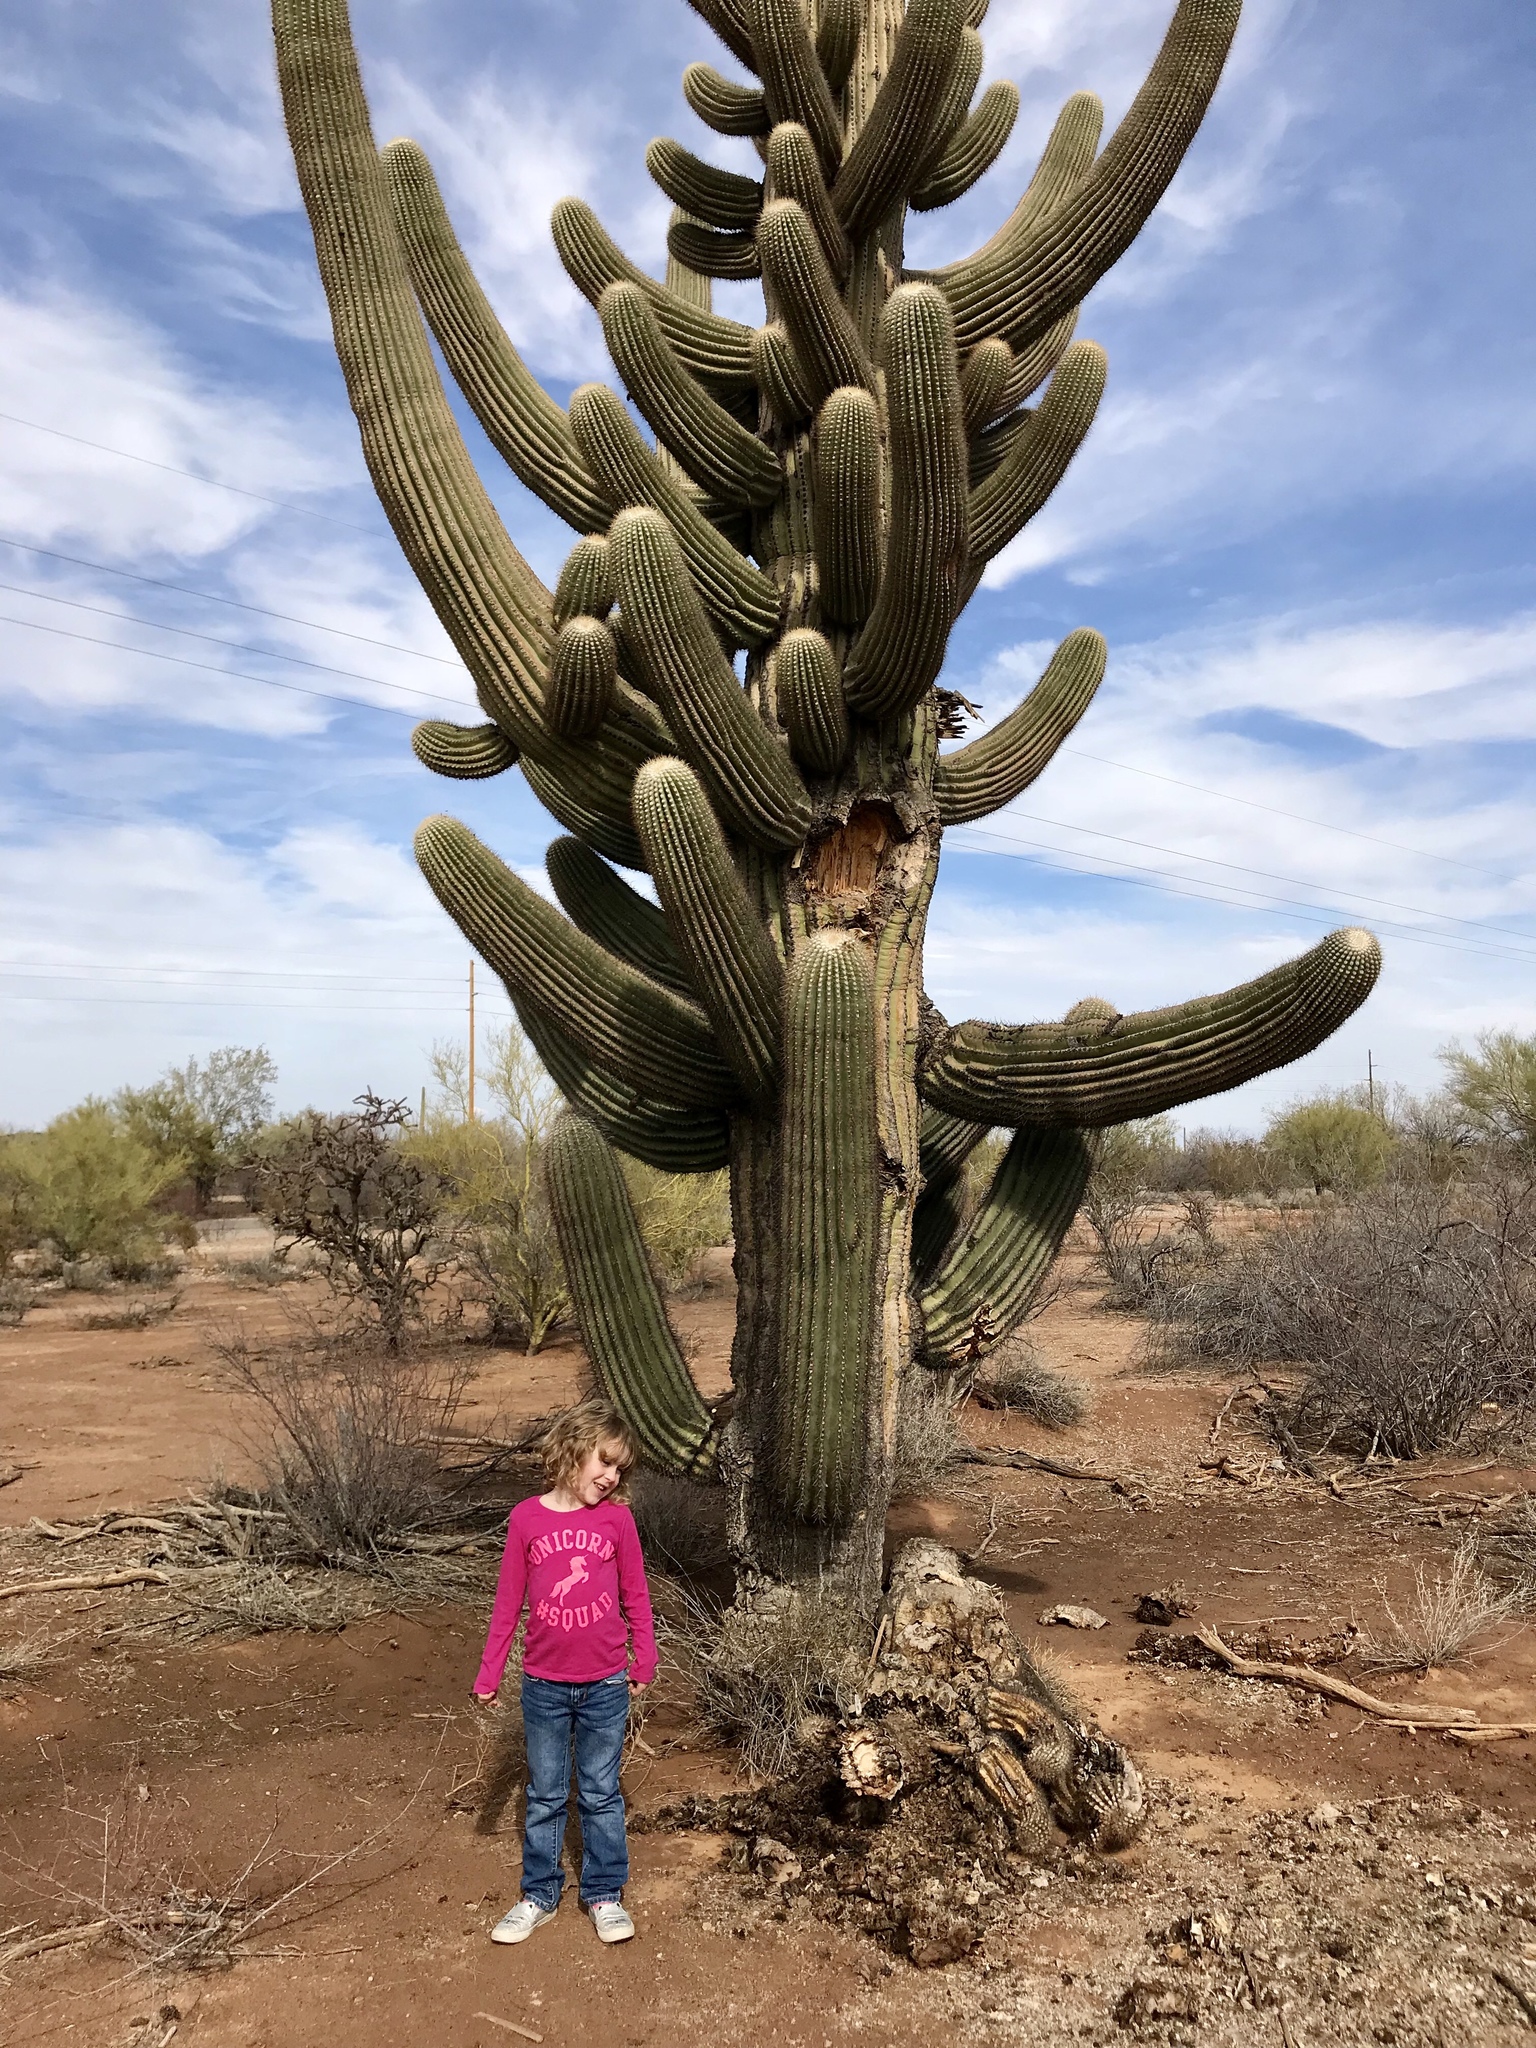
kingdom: Plantae
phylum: Tracheophyta
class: Magnoliopsida
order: Caryophyllales
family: Cactaceae
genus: Carnegiea
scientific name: Carnegiea gigantea
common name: Saguaro
